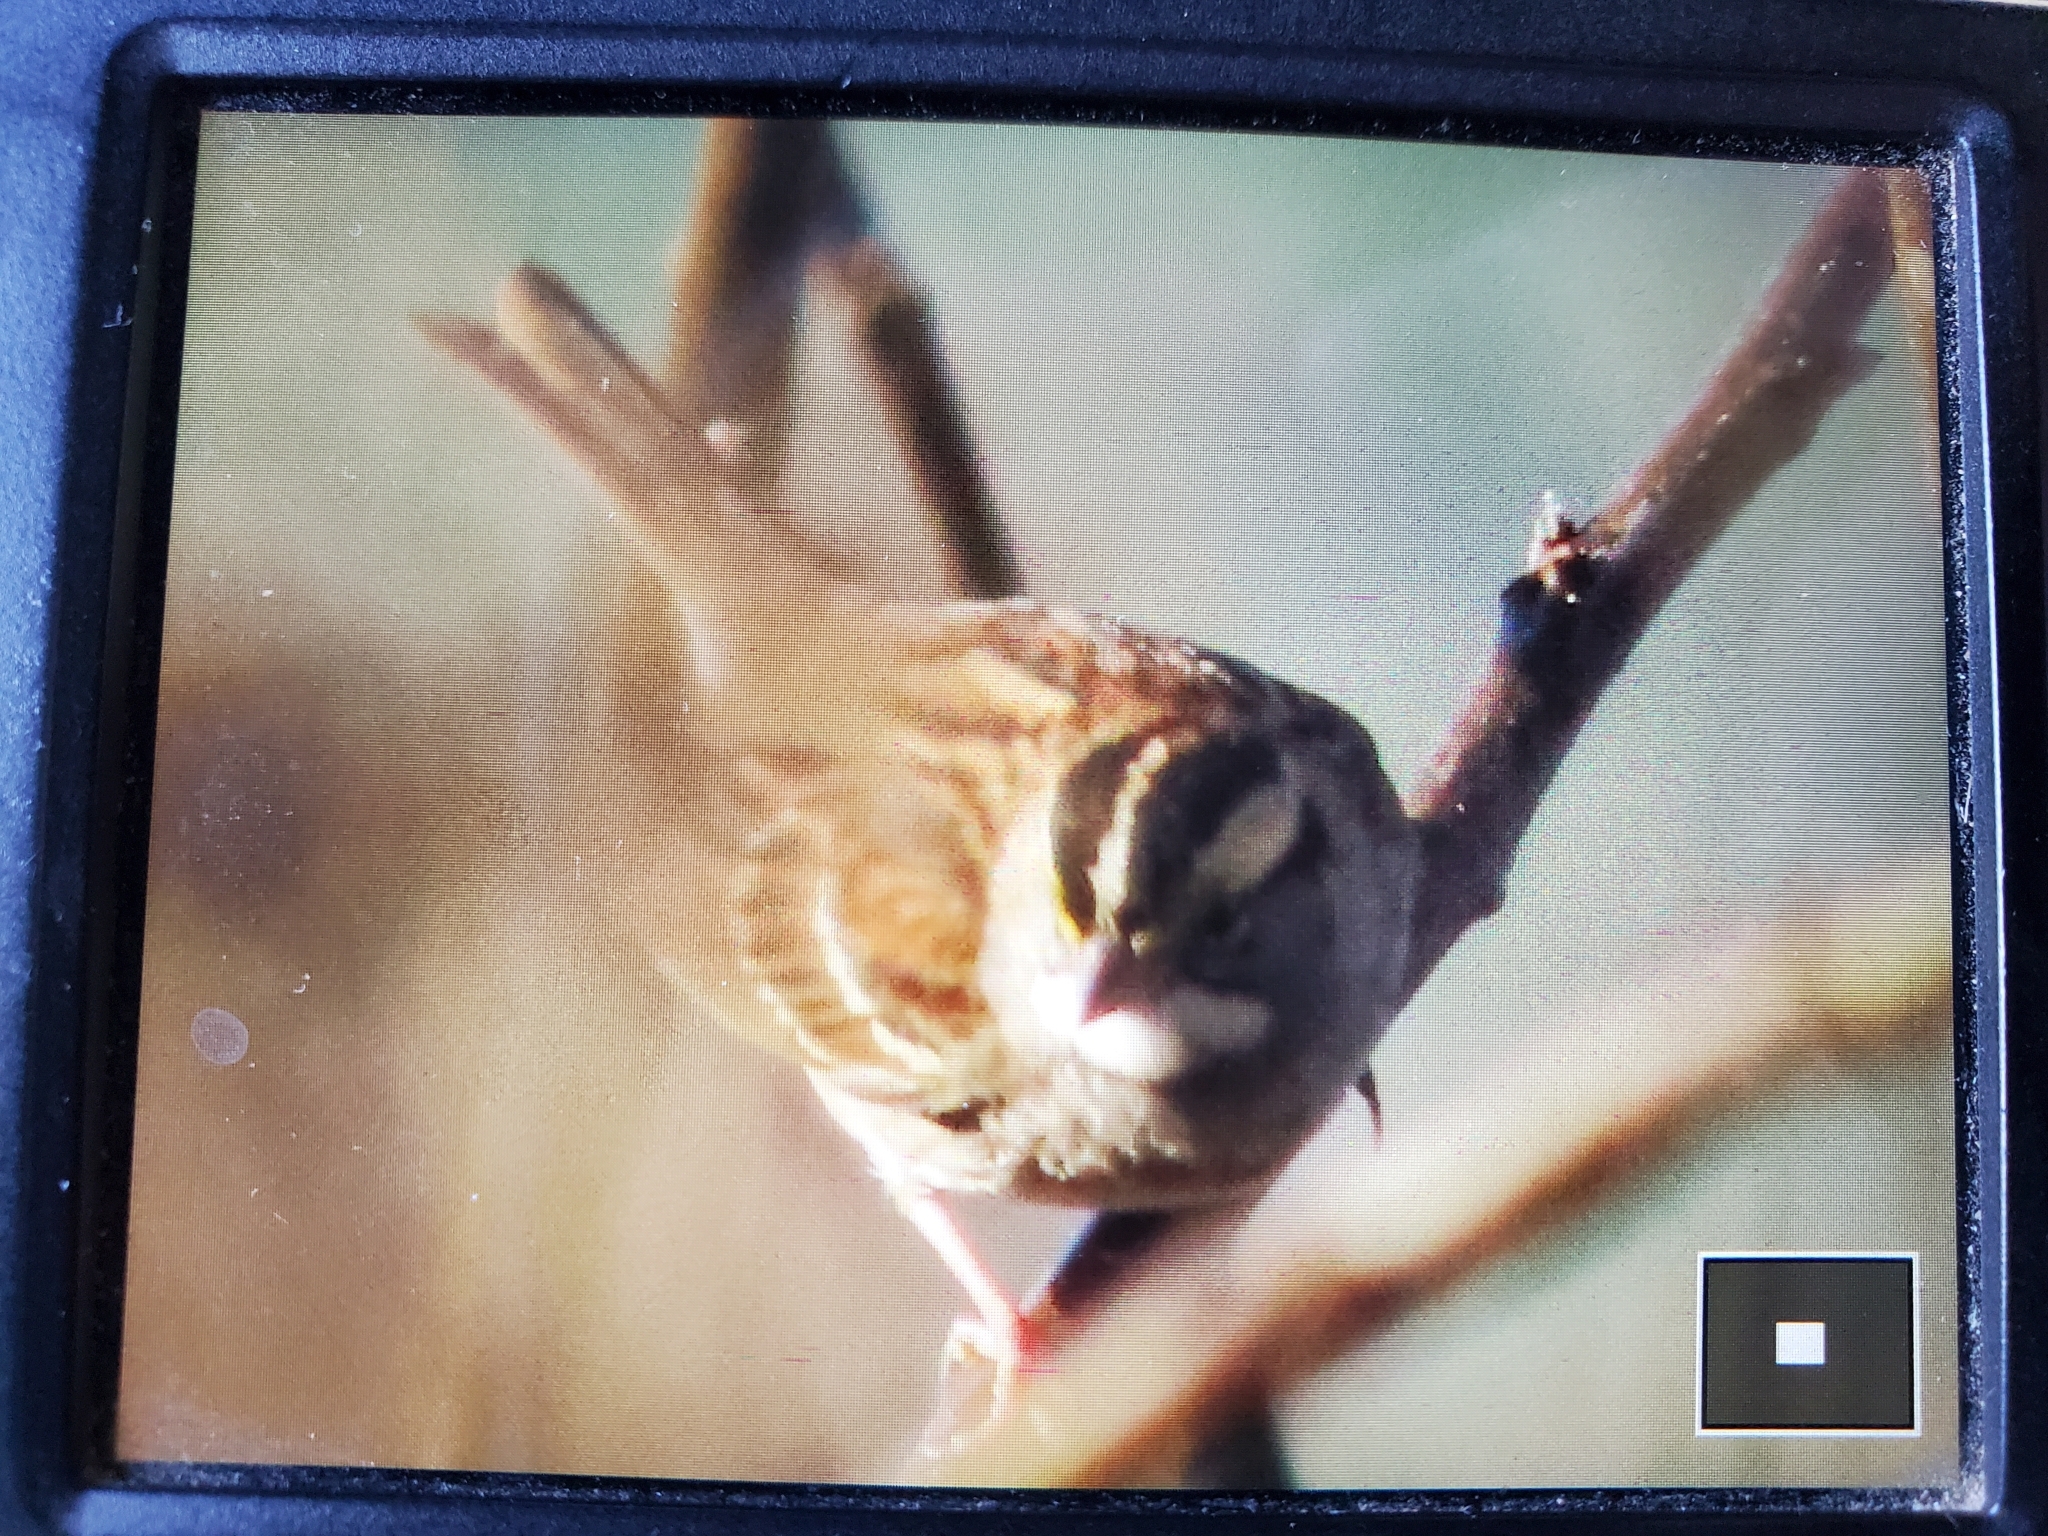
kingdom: Animalia
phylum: Chordata
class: Aves
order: Passeriformes
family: Passerellidae
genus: Zonotrichia
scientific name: Zonotrichia albicollis
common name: White-throated sparrow
